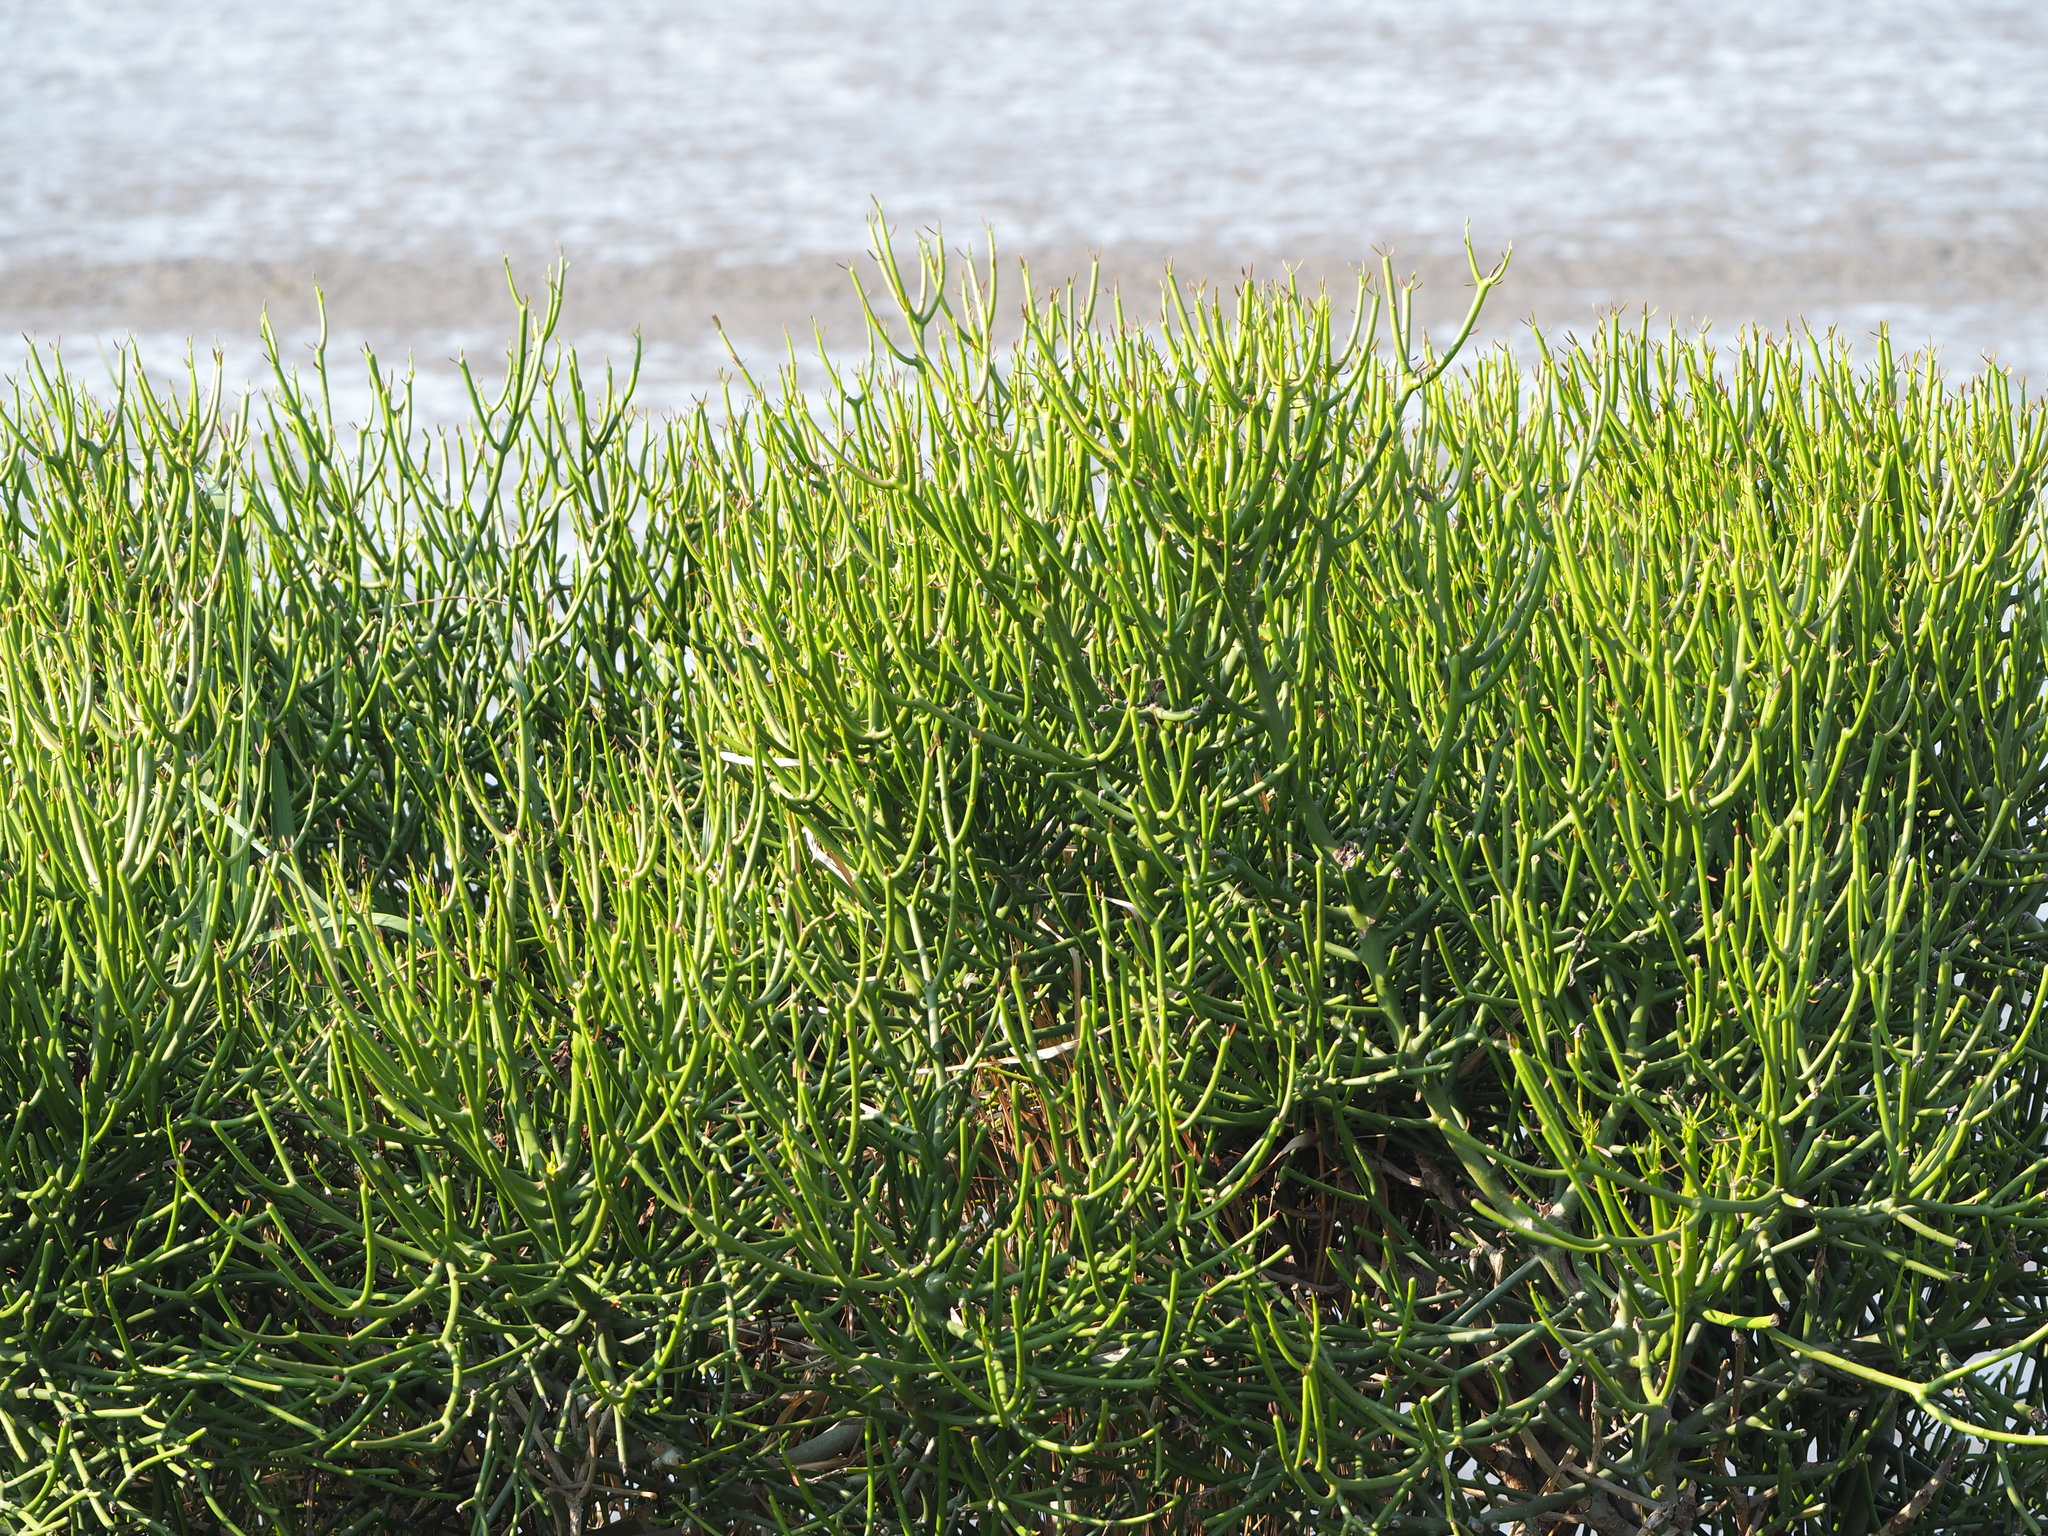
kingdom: Plantae
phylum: Tracheophyta
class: Magnoliopsida
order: Malpighiales
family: Euphorbiaceae
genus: Euphorbia
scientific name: Euphorbia tirucalli
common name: Indiantree spurge
